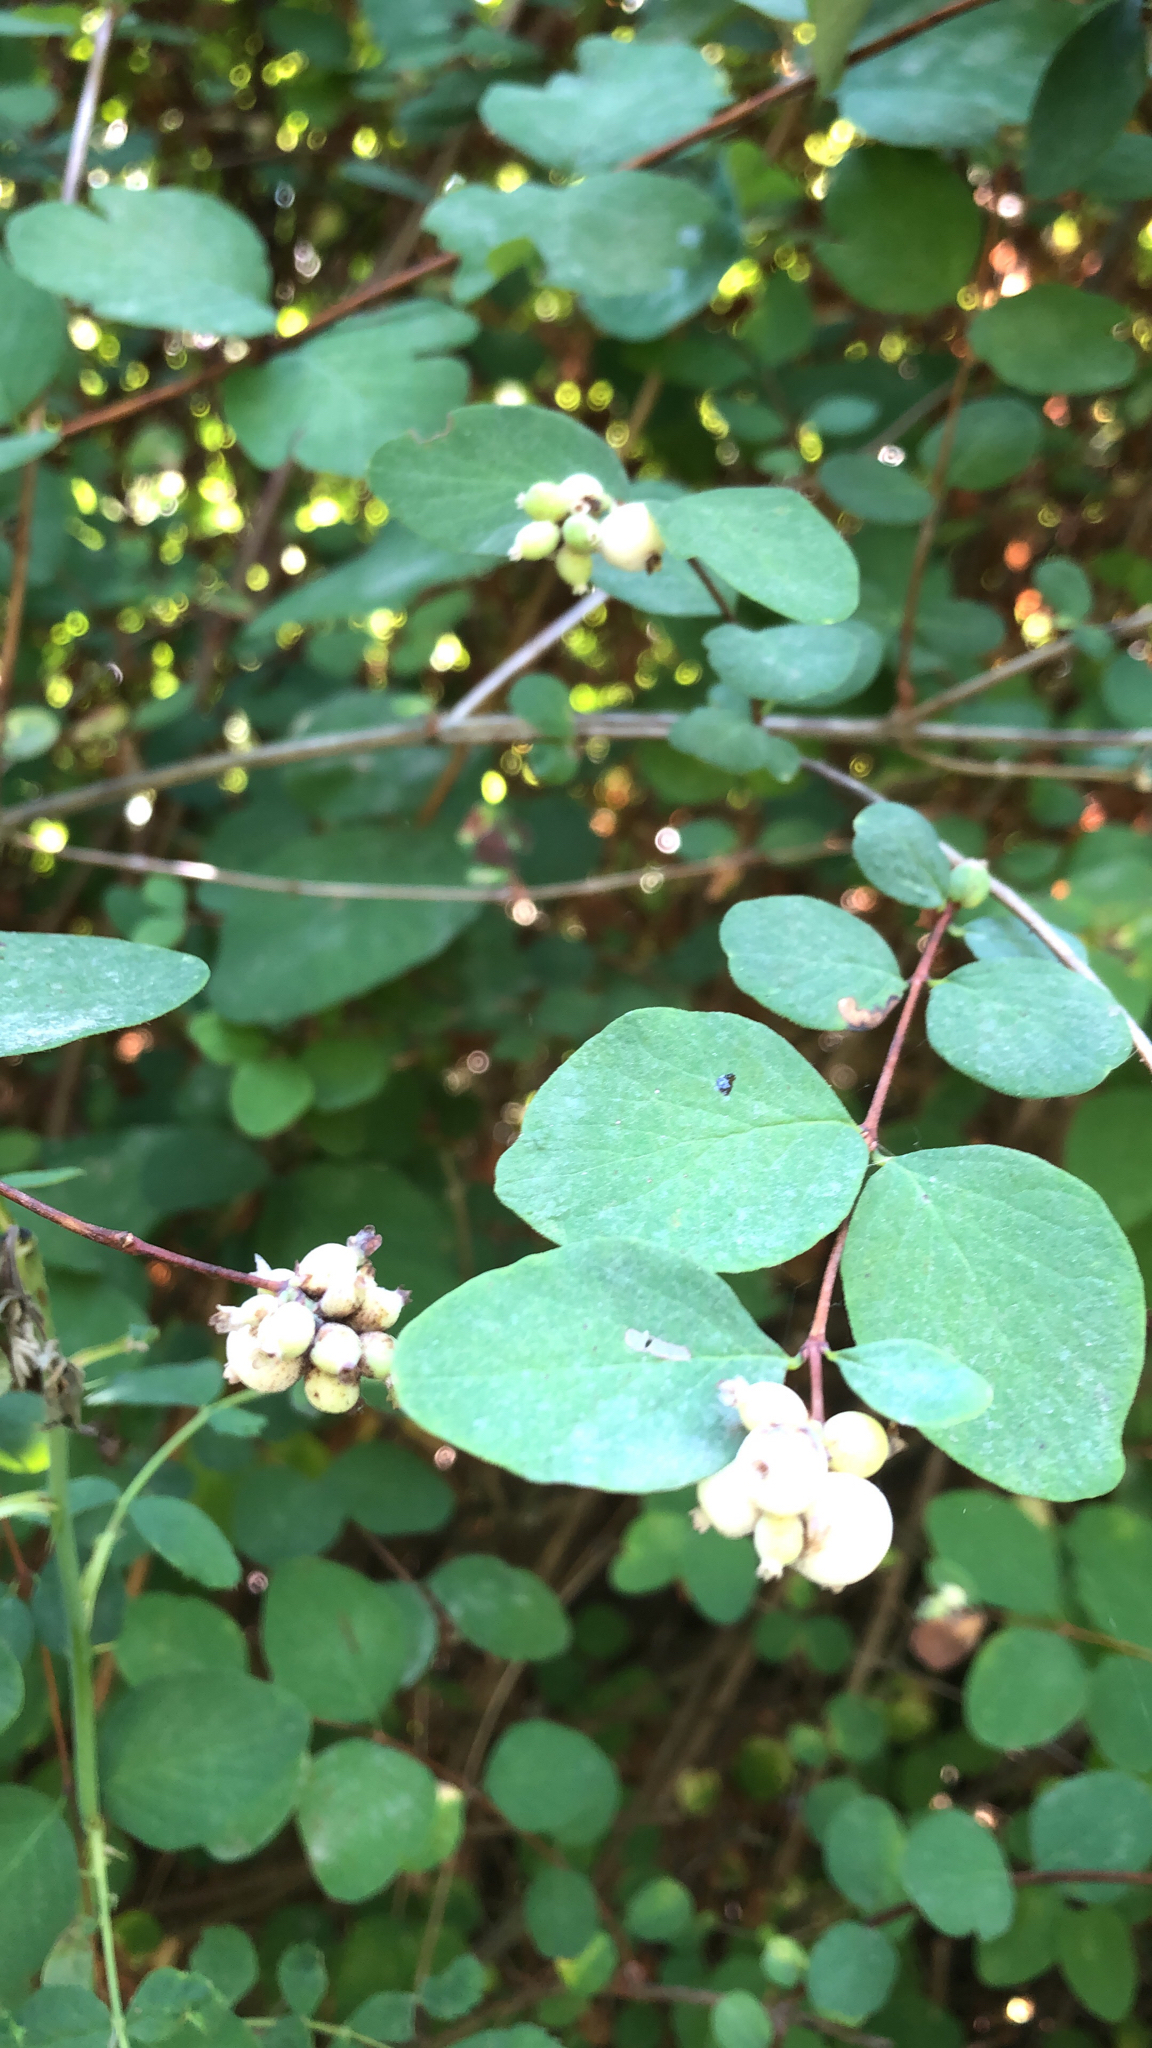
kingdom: Plantae
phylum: Tracheophyta
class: Magnoliopsida
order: Dipsacales
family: Caprifoliaceae
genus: Symphoricarpos
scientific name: Symphoricarpos albus
